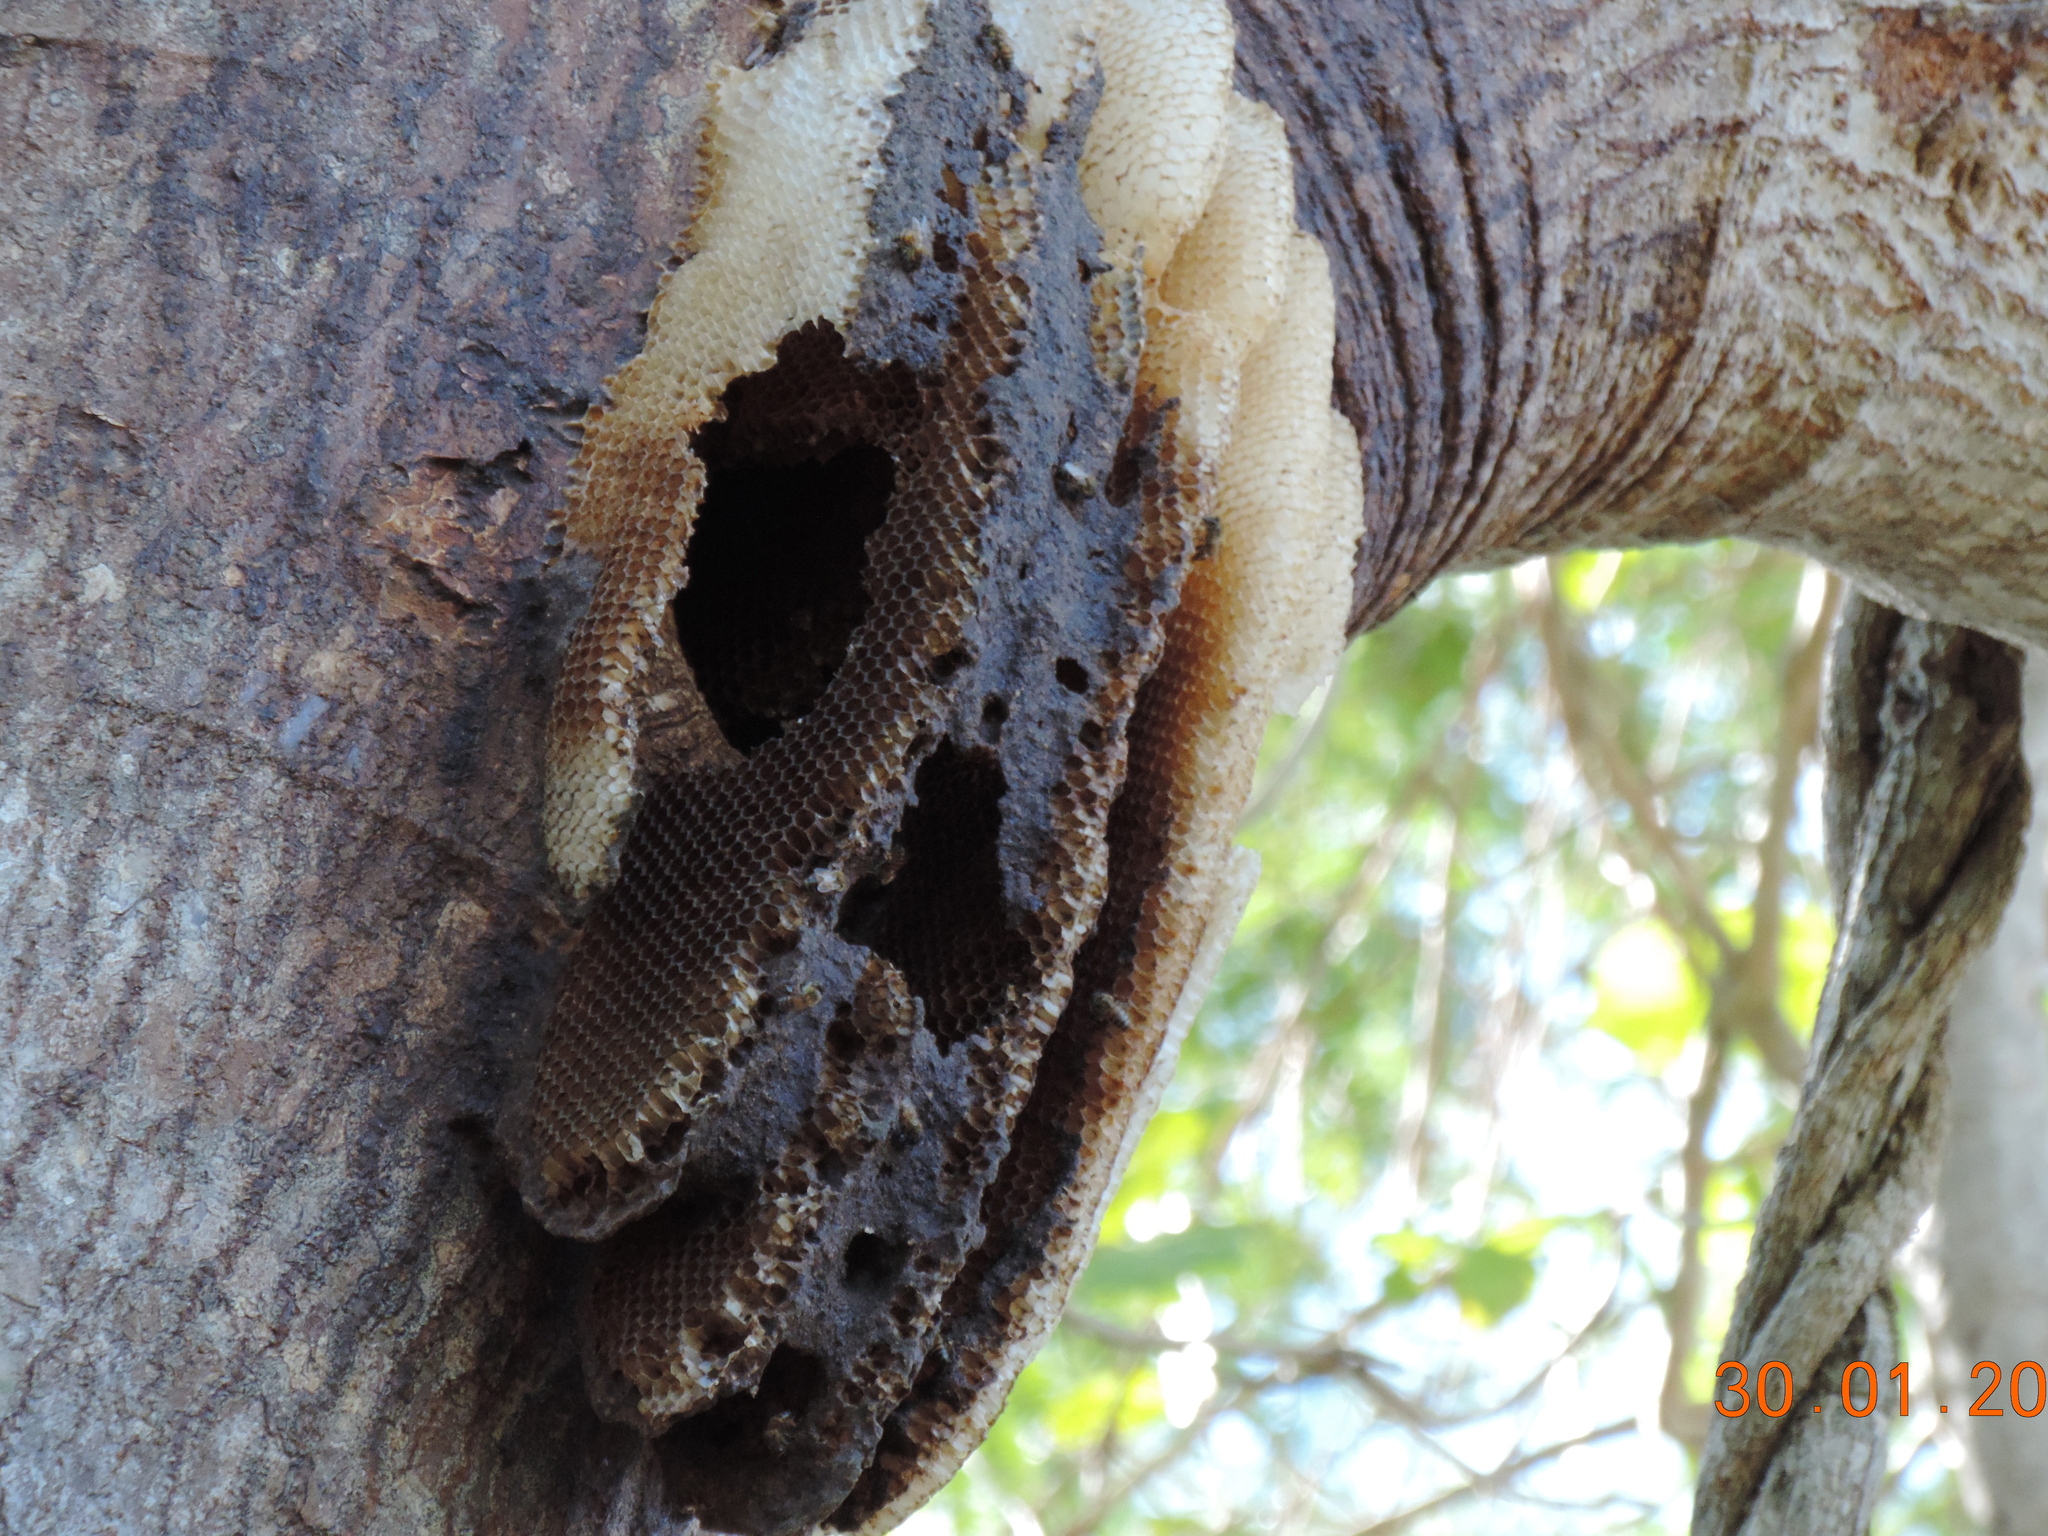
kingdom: Animalia
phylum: Arthropoda
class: Insecta
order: Hymenoptera
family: Apidae
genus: Apis
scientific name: Apis mellifera
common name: Honey bee
